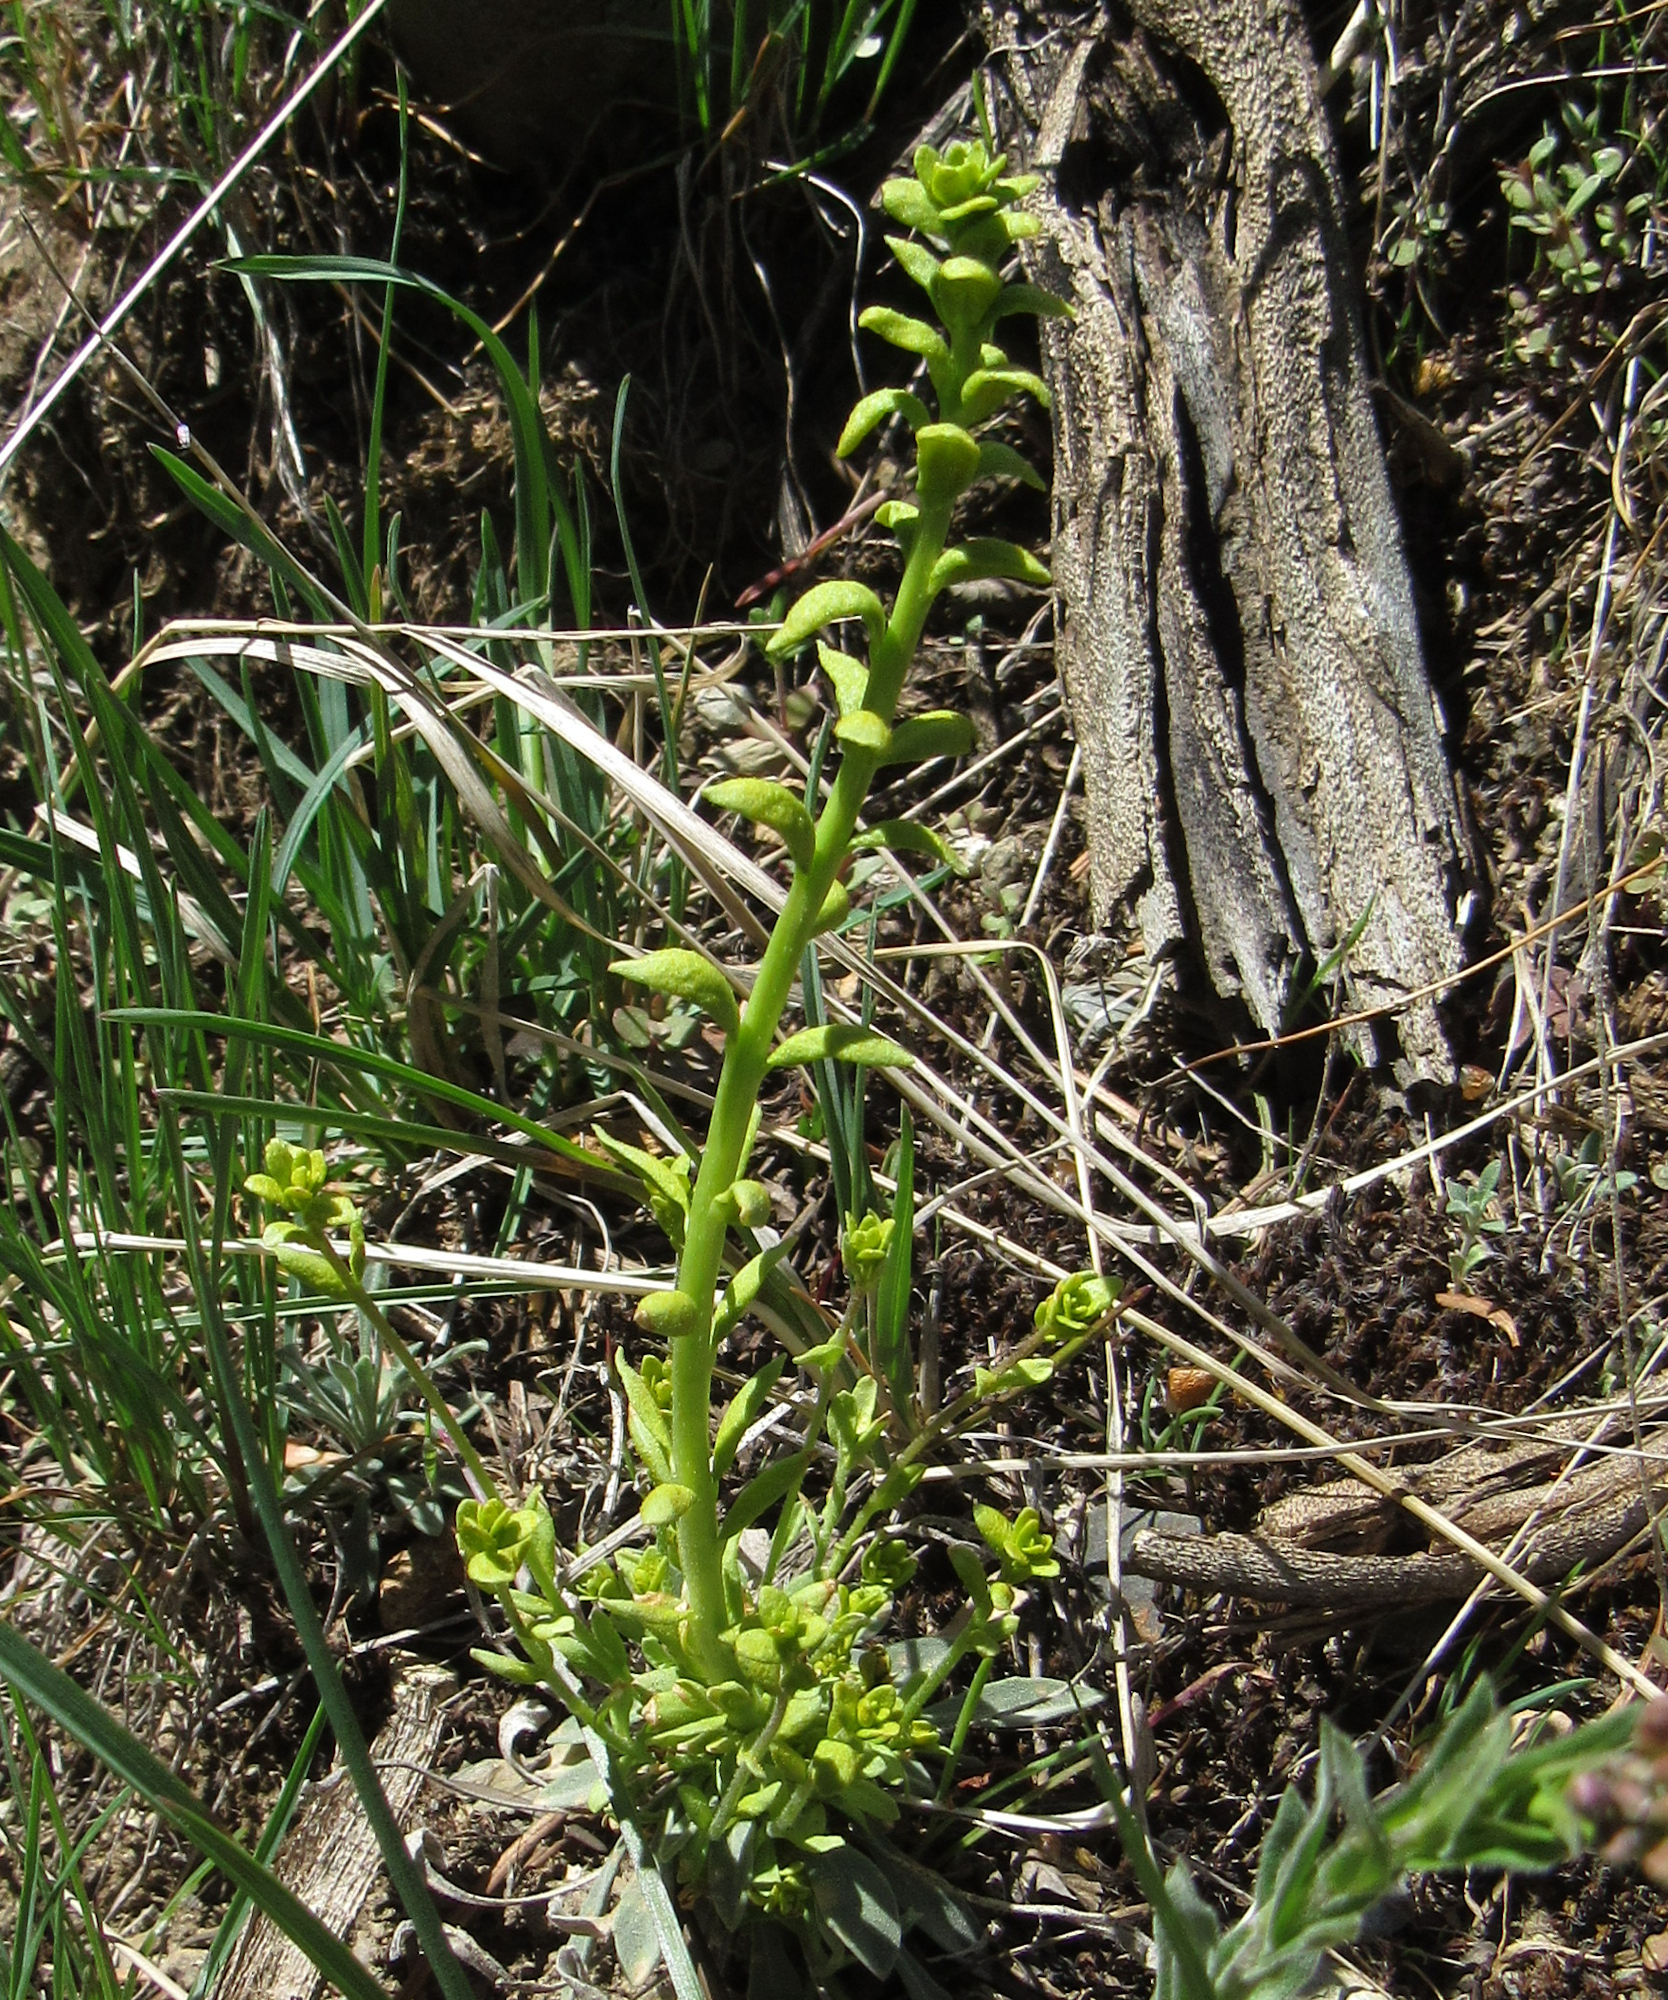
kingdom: Fungi
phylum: Basidiomycota
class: Pucciniomycetes
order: Pucciniales
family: Pucciniaceae
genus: Puccinia
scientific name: Puccinia monoica
